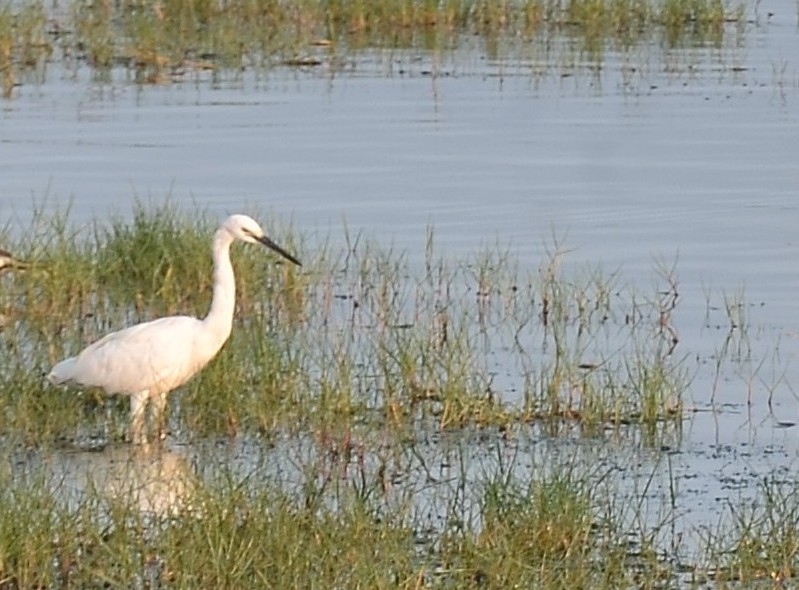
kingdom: Animalia
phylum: Chordata
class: Aves
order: Pelecaniformes
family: Ardeidae
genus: Egretta
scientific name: Egretta garzetta
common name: Little egret
